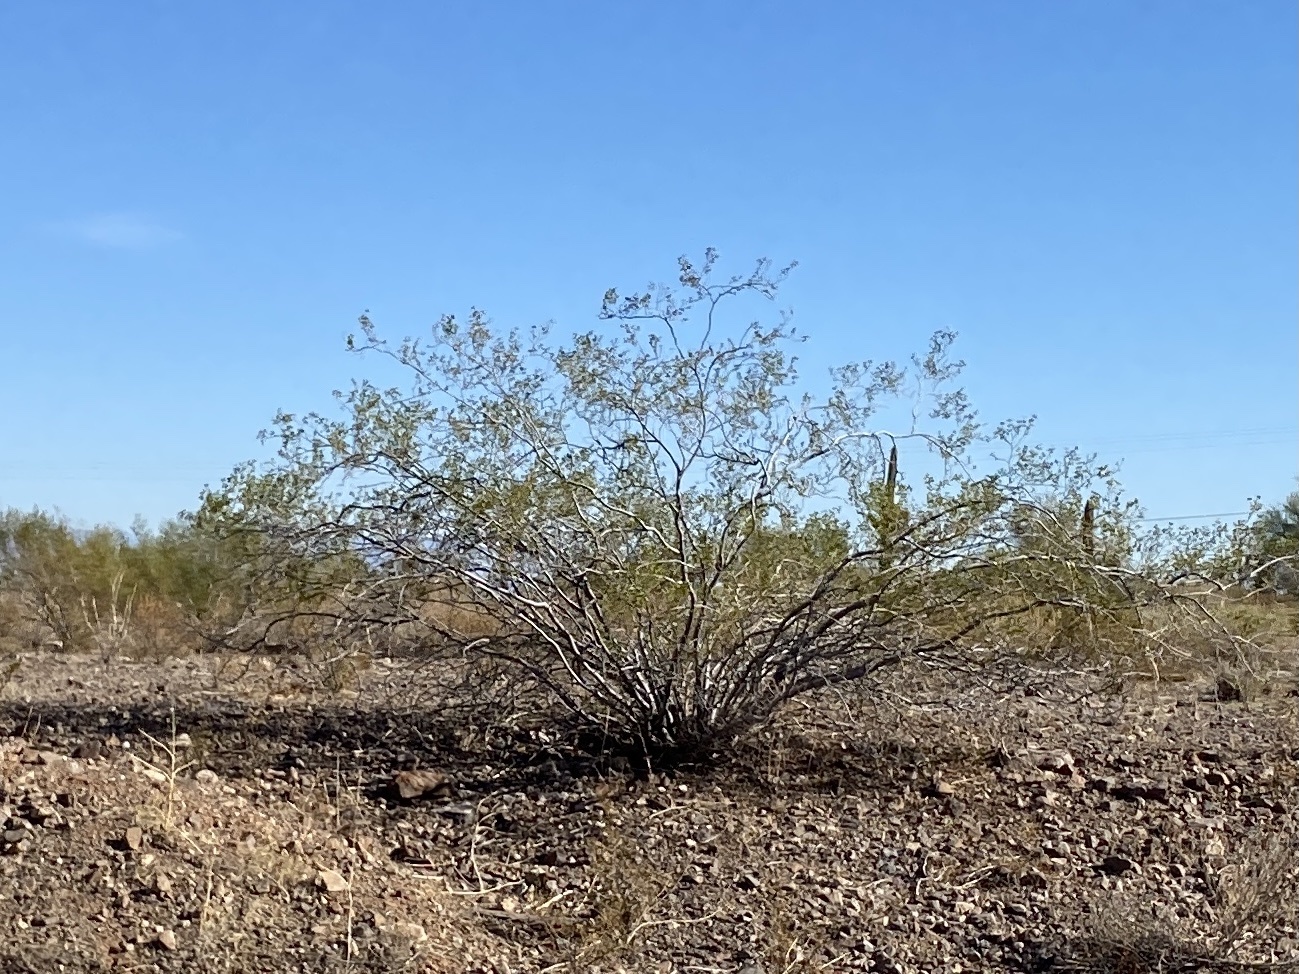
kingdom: Plantae
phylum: Tracheophyta
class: Magnoliopsida
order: Zygophyllales
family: Zygophyllaceae
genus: Larrea
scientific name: Larrea tridentata
